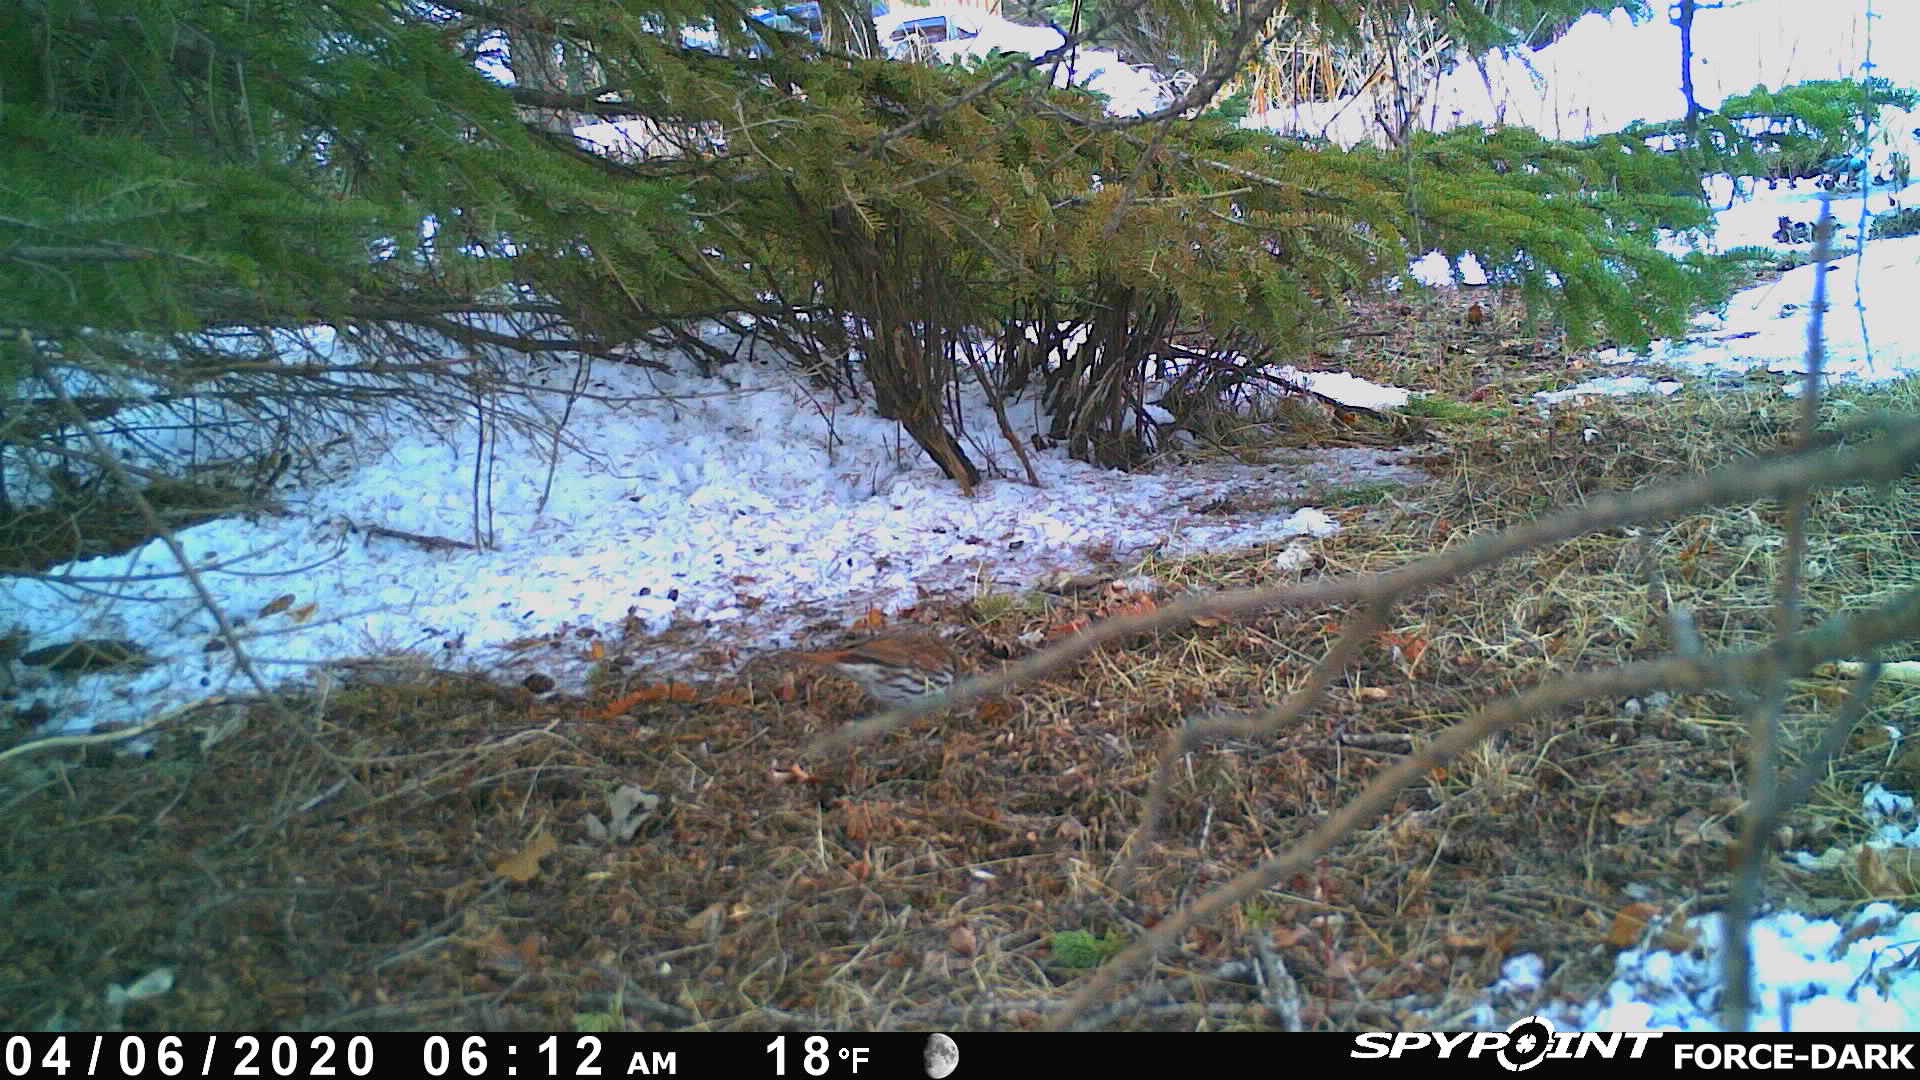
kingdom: Animalia
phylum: Chordata
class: Aves
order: Passeriformes
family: Passerellidae
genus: Passerella
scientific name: Passerella iliaca
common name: Fox sparrow
